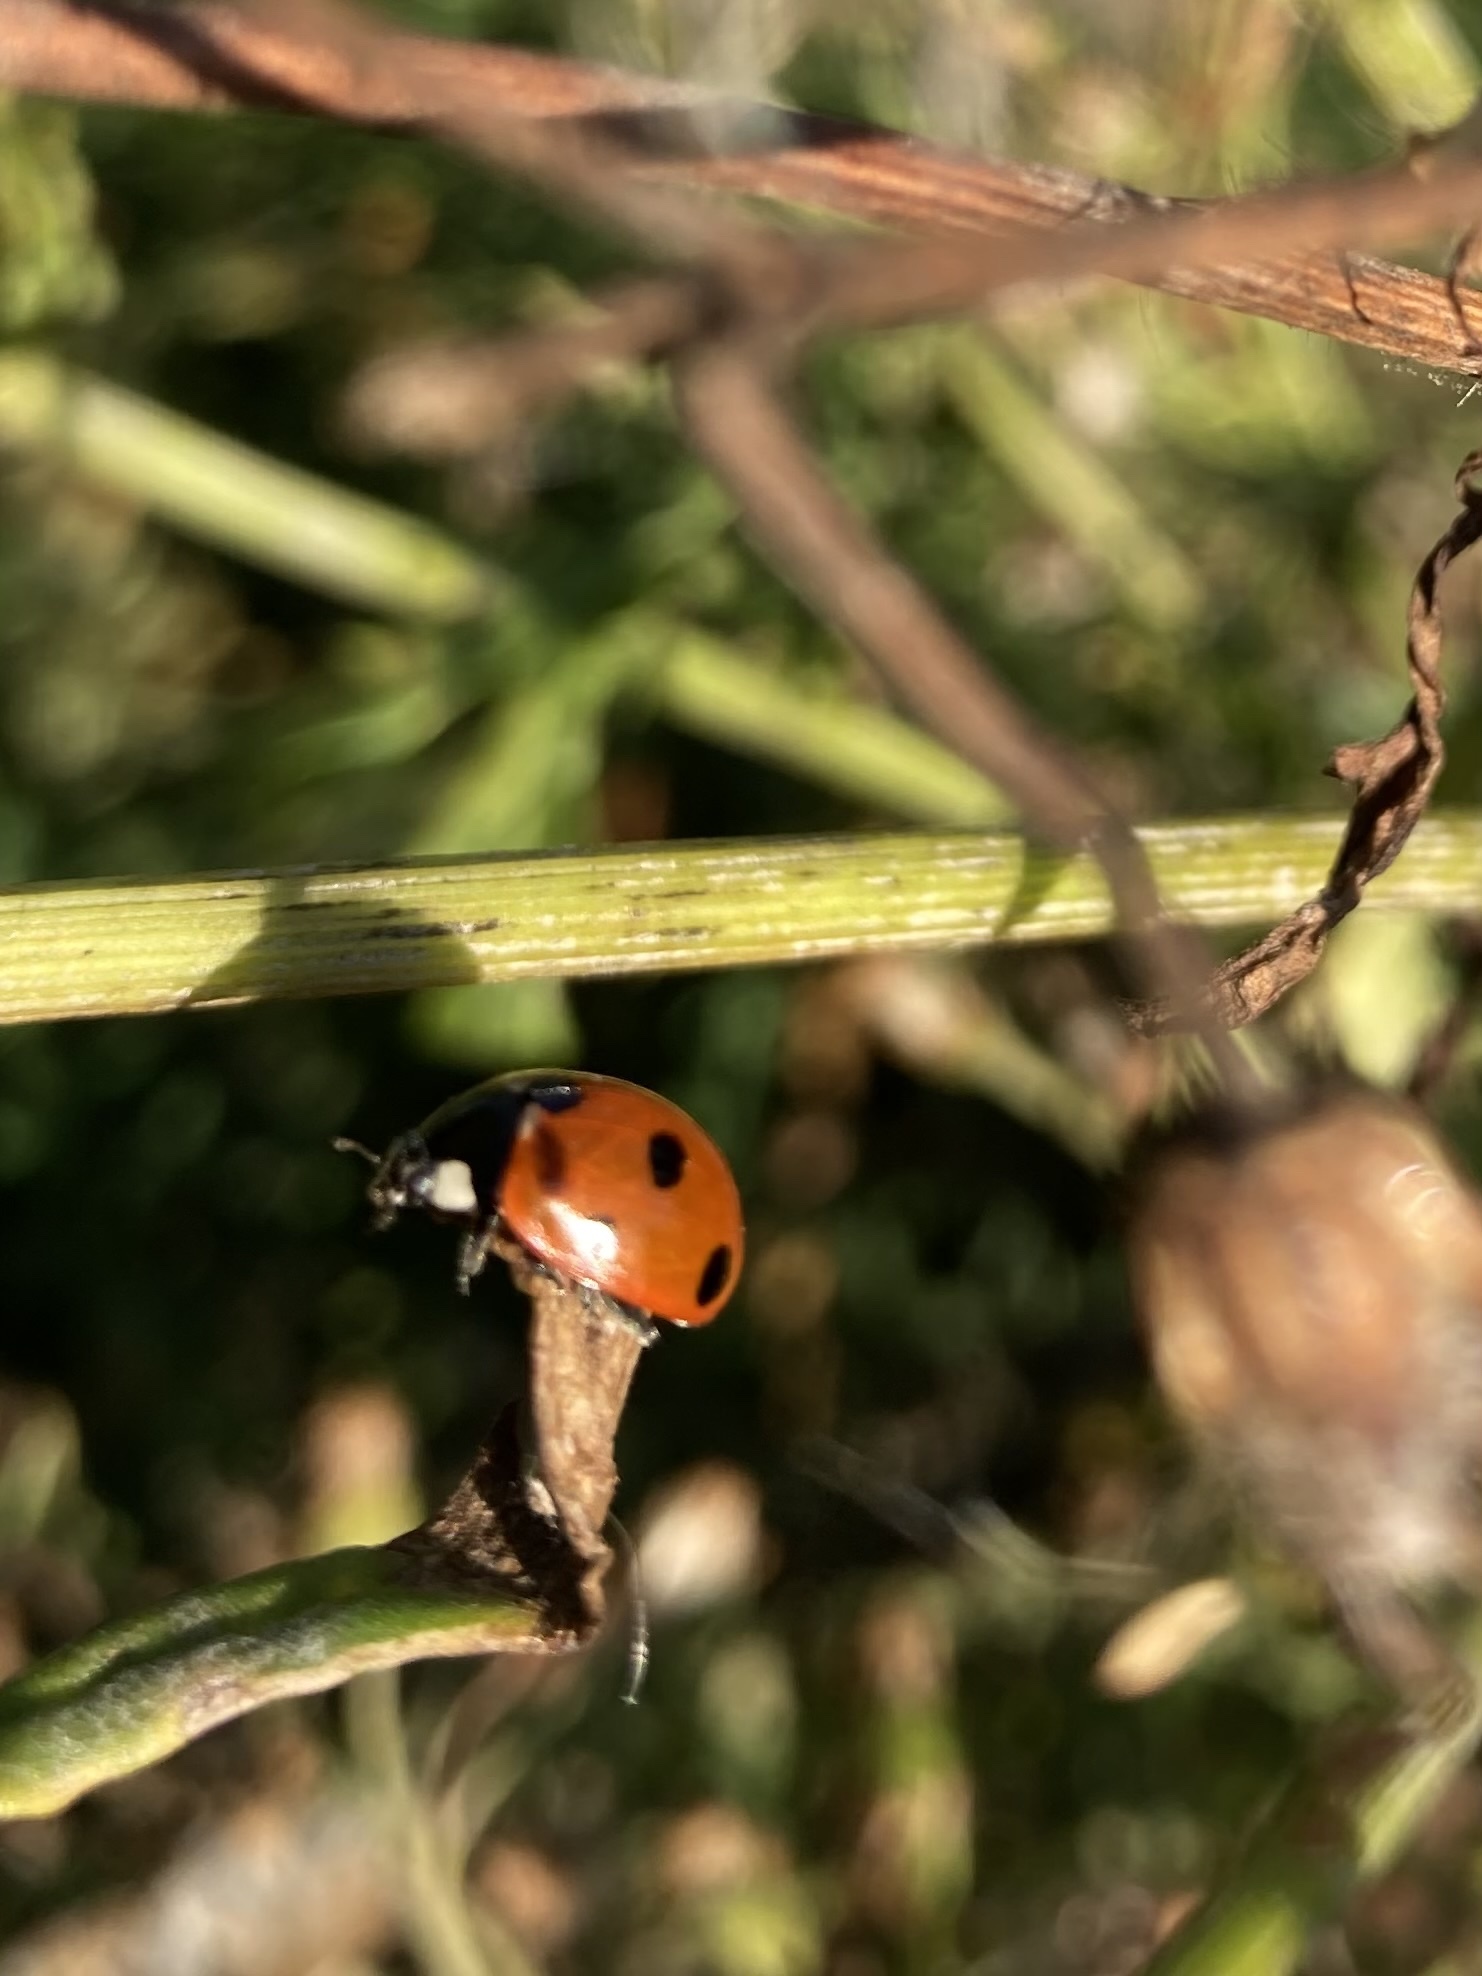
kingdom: Animalia
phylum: Arthropoda
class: Insecta
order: Coleoptera
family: Coccinellidae
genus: Coccinella
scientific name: Coccinella septempunctata
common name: Sevenspotted lady beetle
